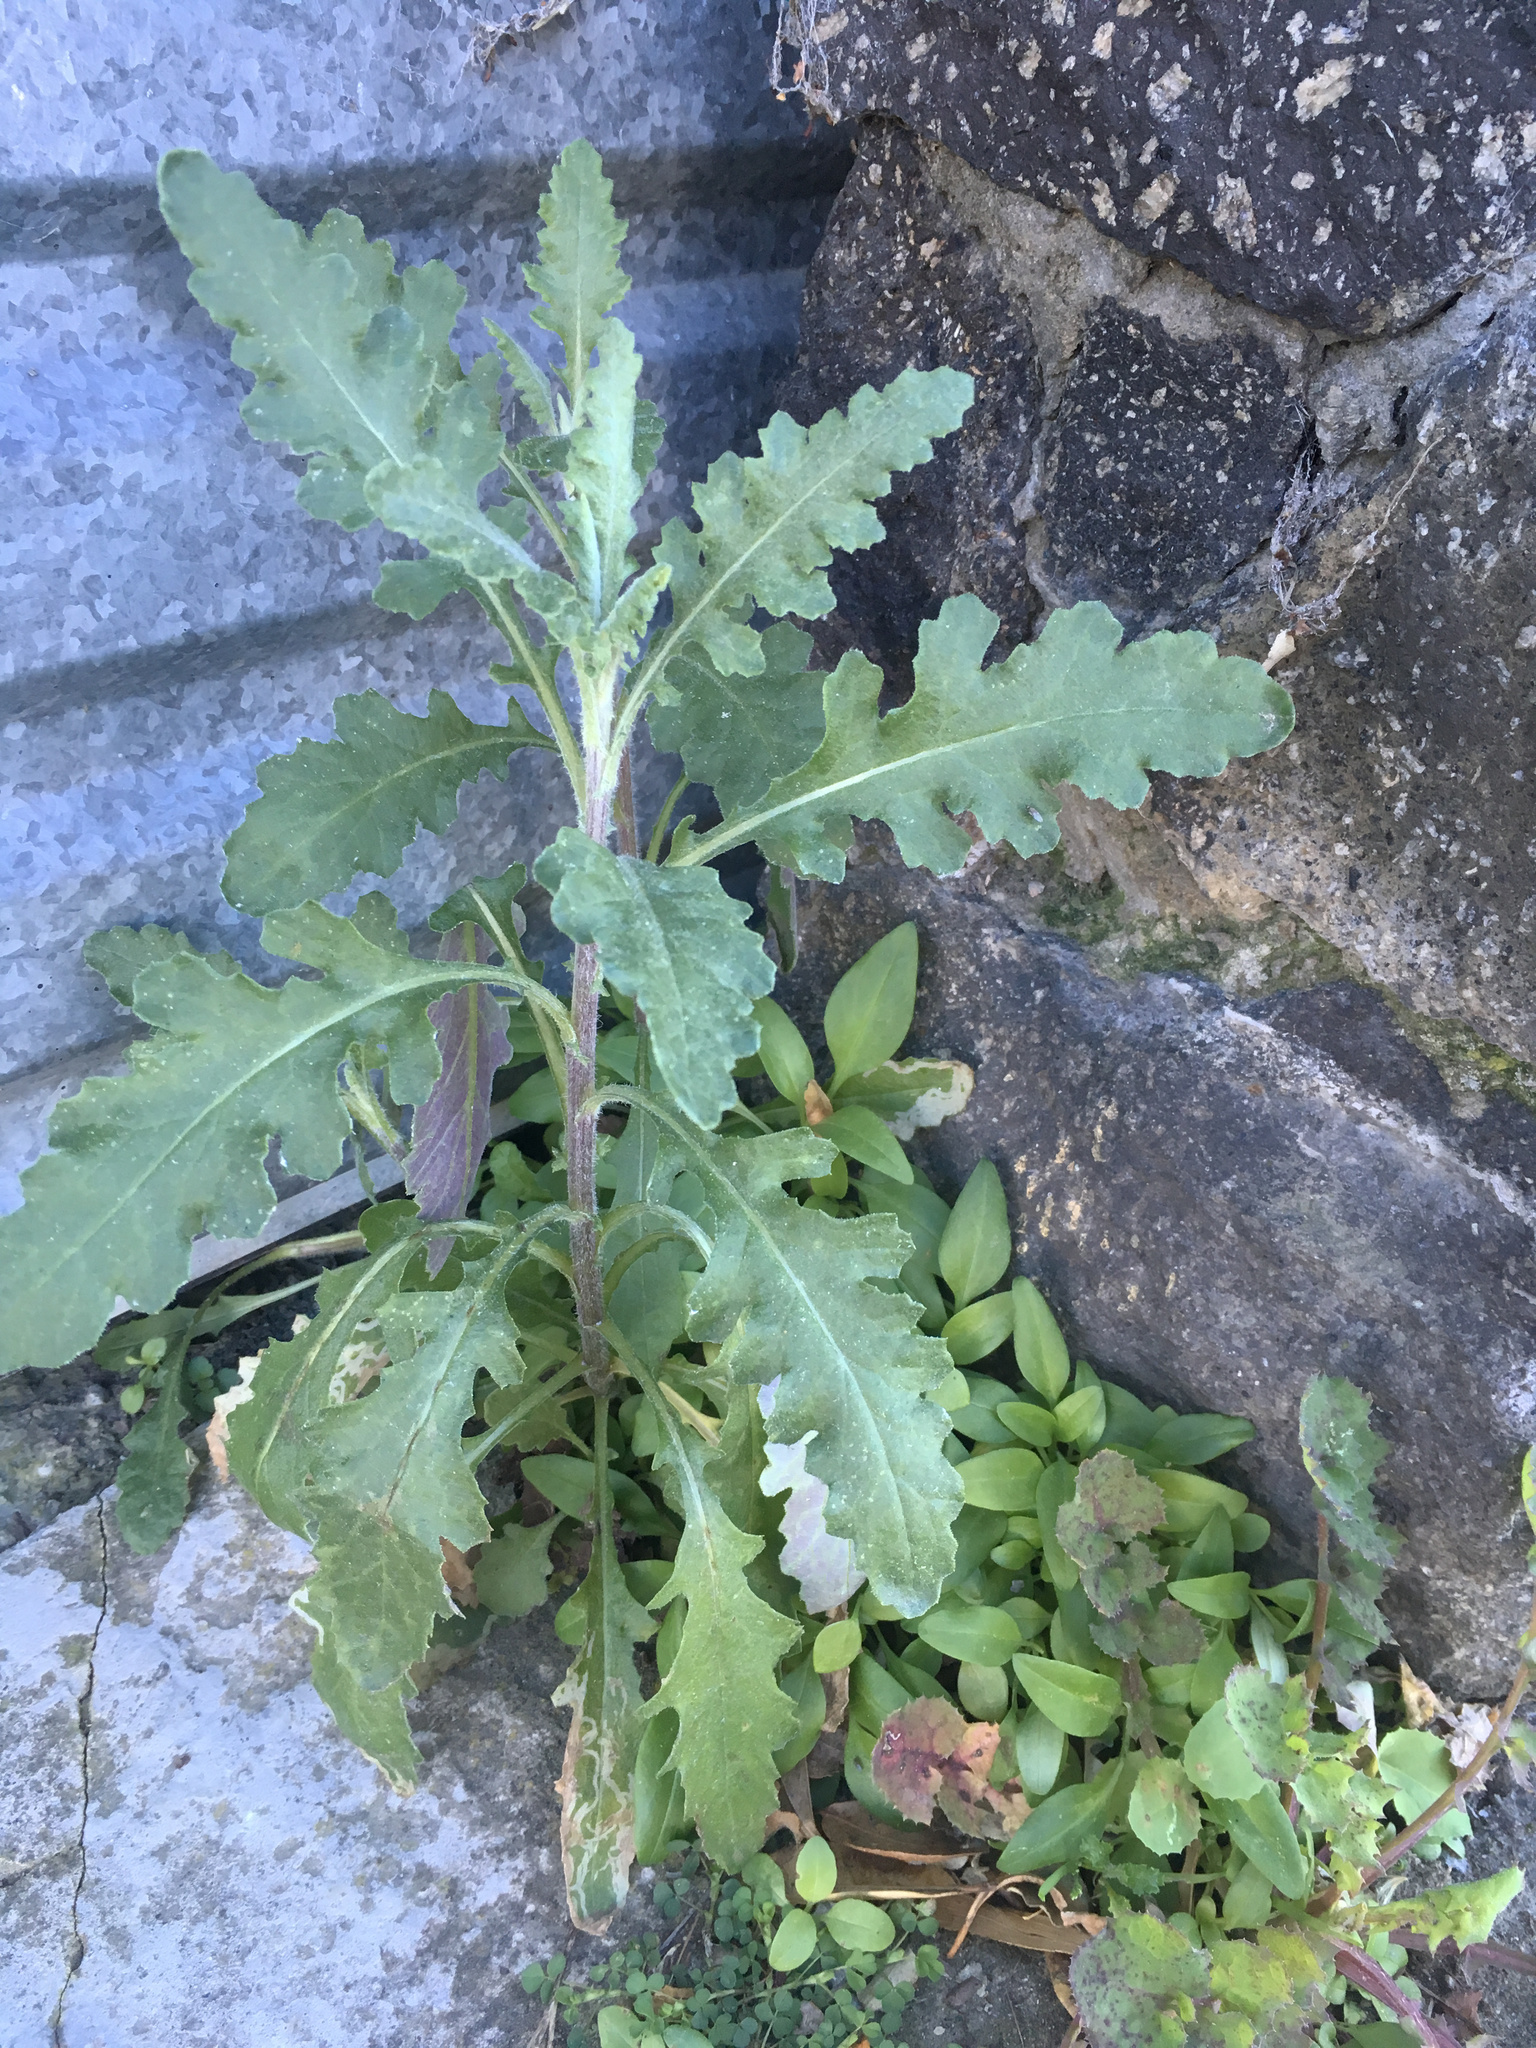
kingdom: Plantae
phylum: Tracheophyta
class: Magnoliopsida
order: Asterales
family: Asteraceae
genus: Senecio
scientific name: Senecio glomeratus
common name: Cutleaf burnweed
